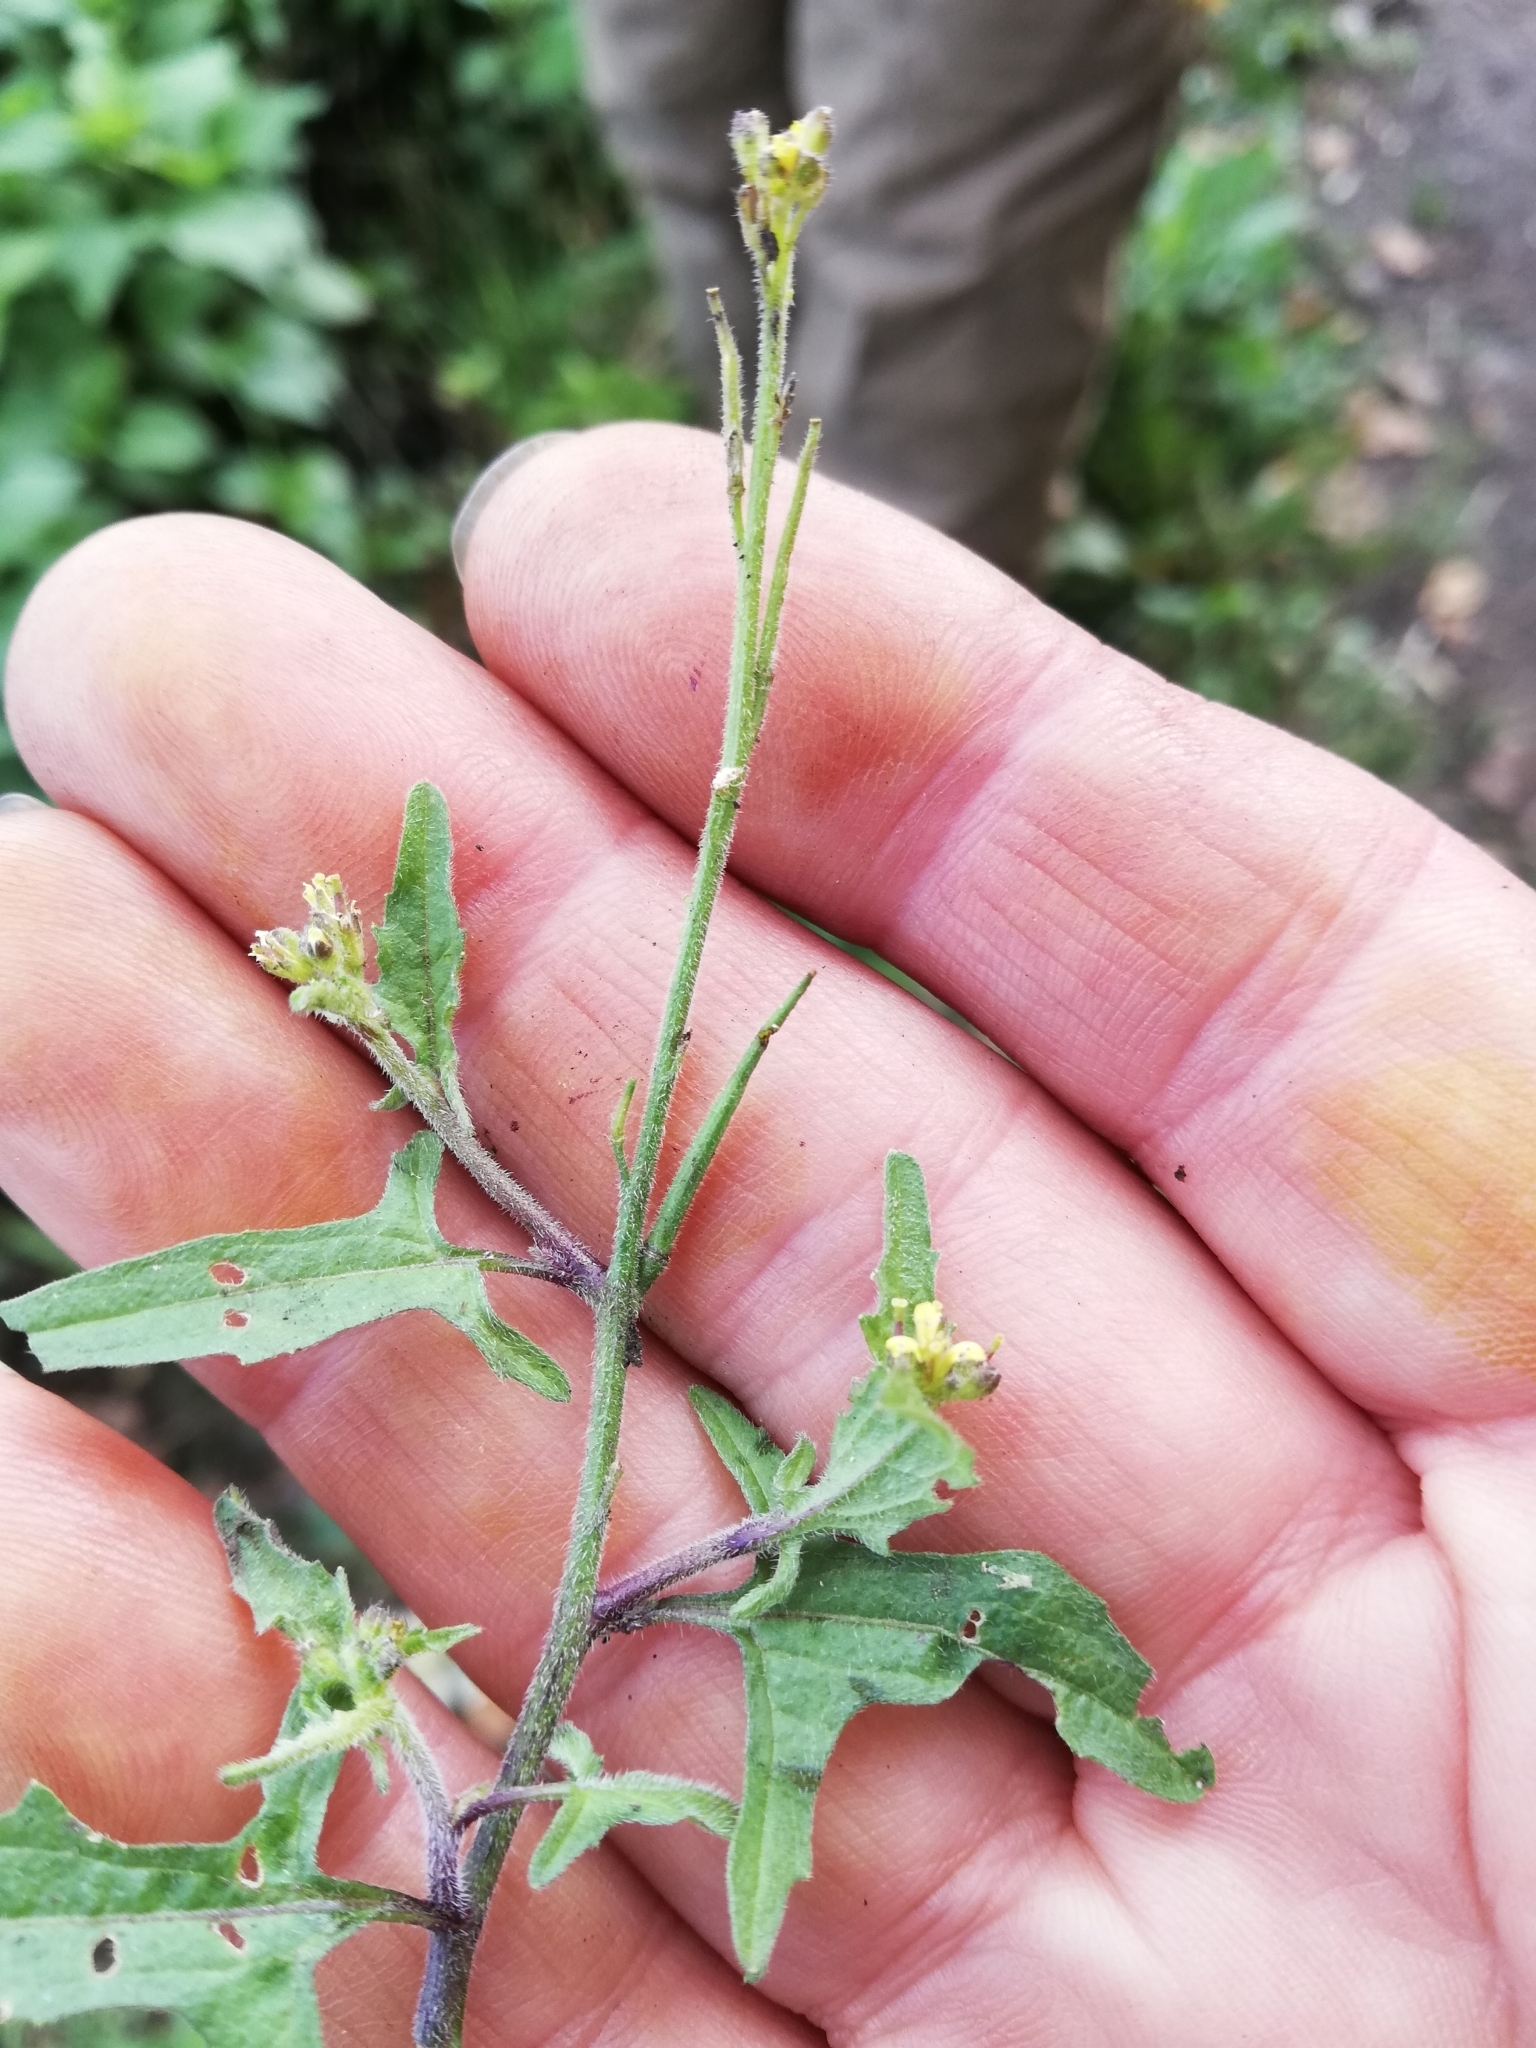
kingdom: Plantae
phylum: Tracheophyta
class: Magnoliopsida
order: Brassicales
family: Brassicaceae
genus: Sisymbrium
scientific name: Sisymbrium officinale
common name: Hedge mustard
